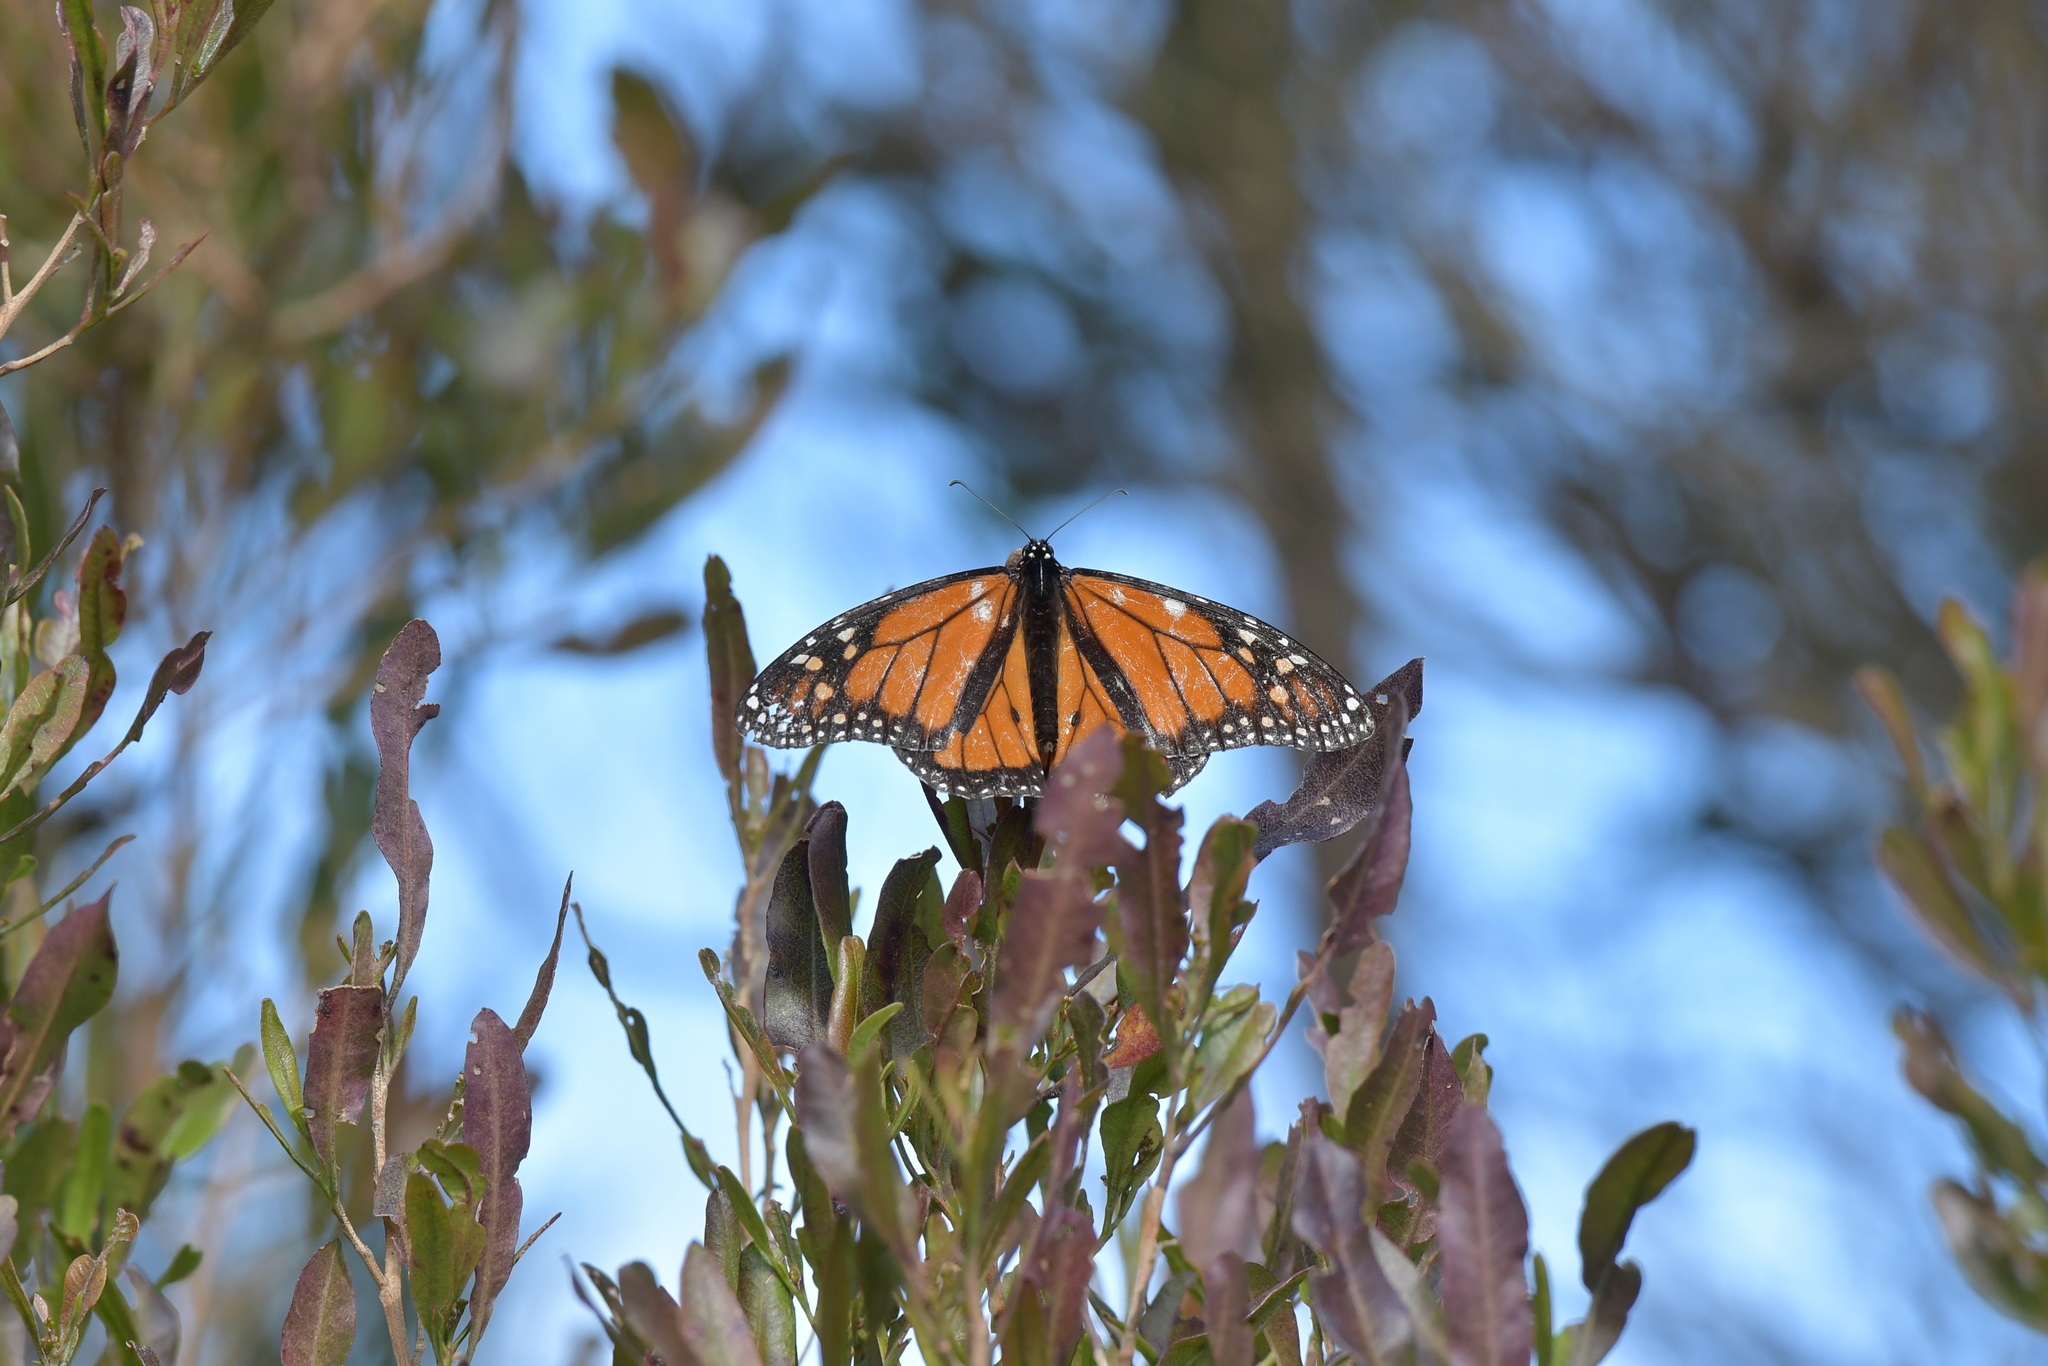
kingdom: Animalia
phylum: Arthropoda
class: Insecta
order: Lepidoptera
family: Nymphalidae
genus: Danaus
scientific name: Danaus plexippus
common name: Monarch
